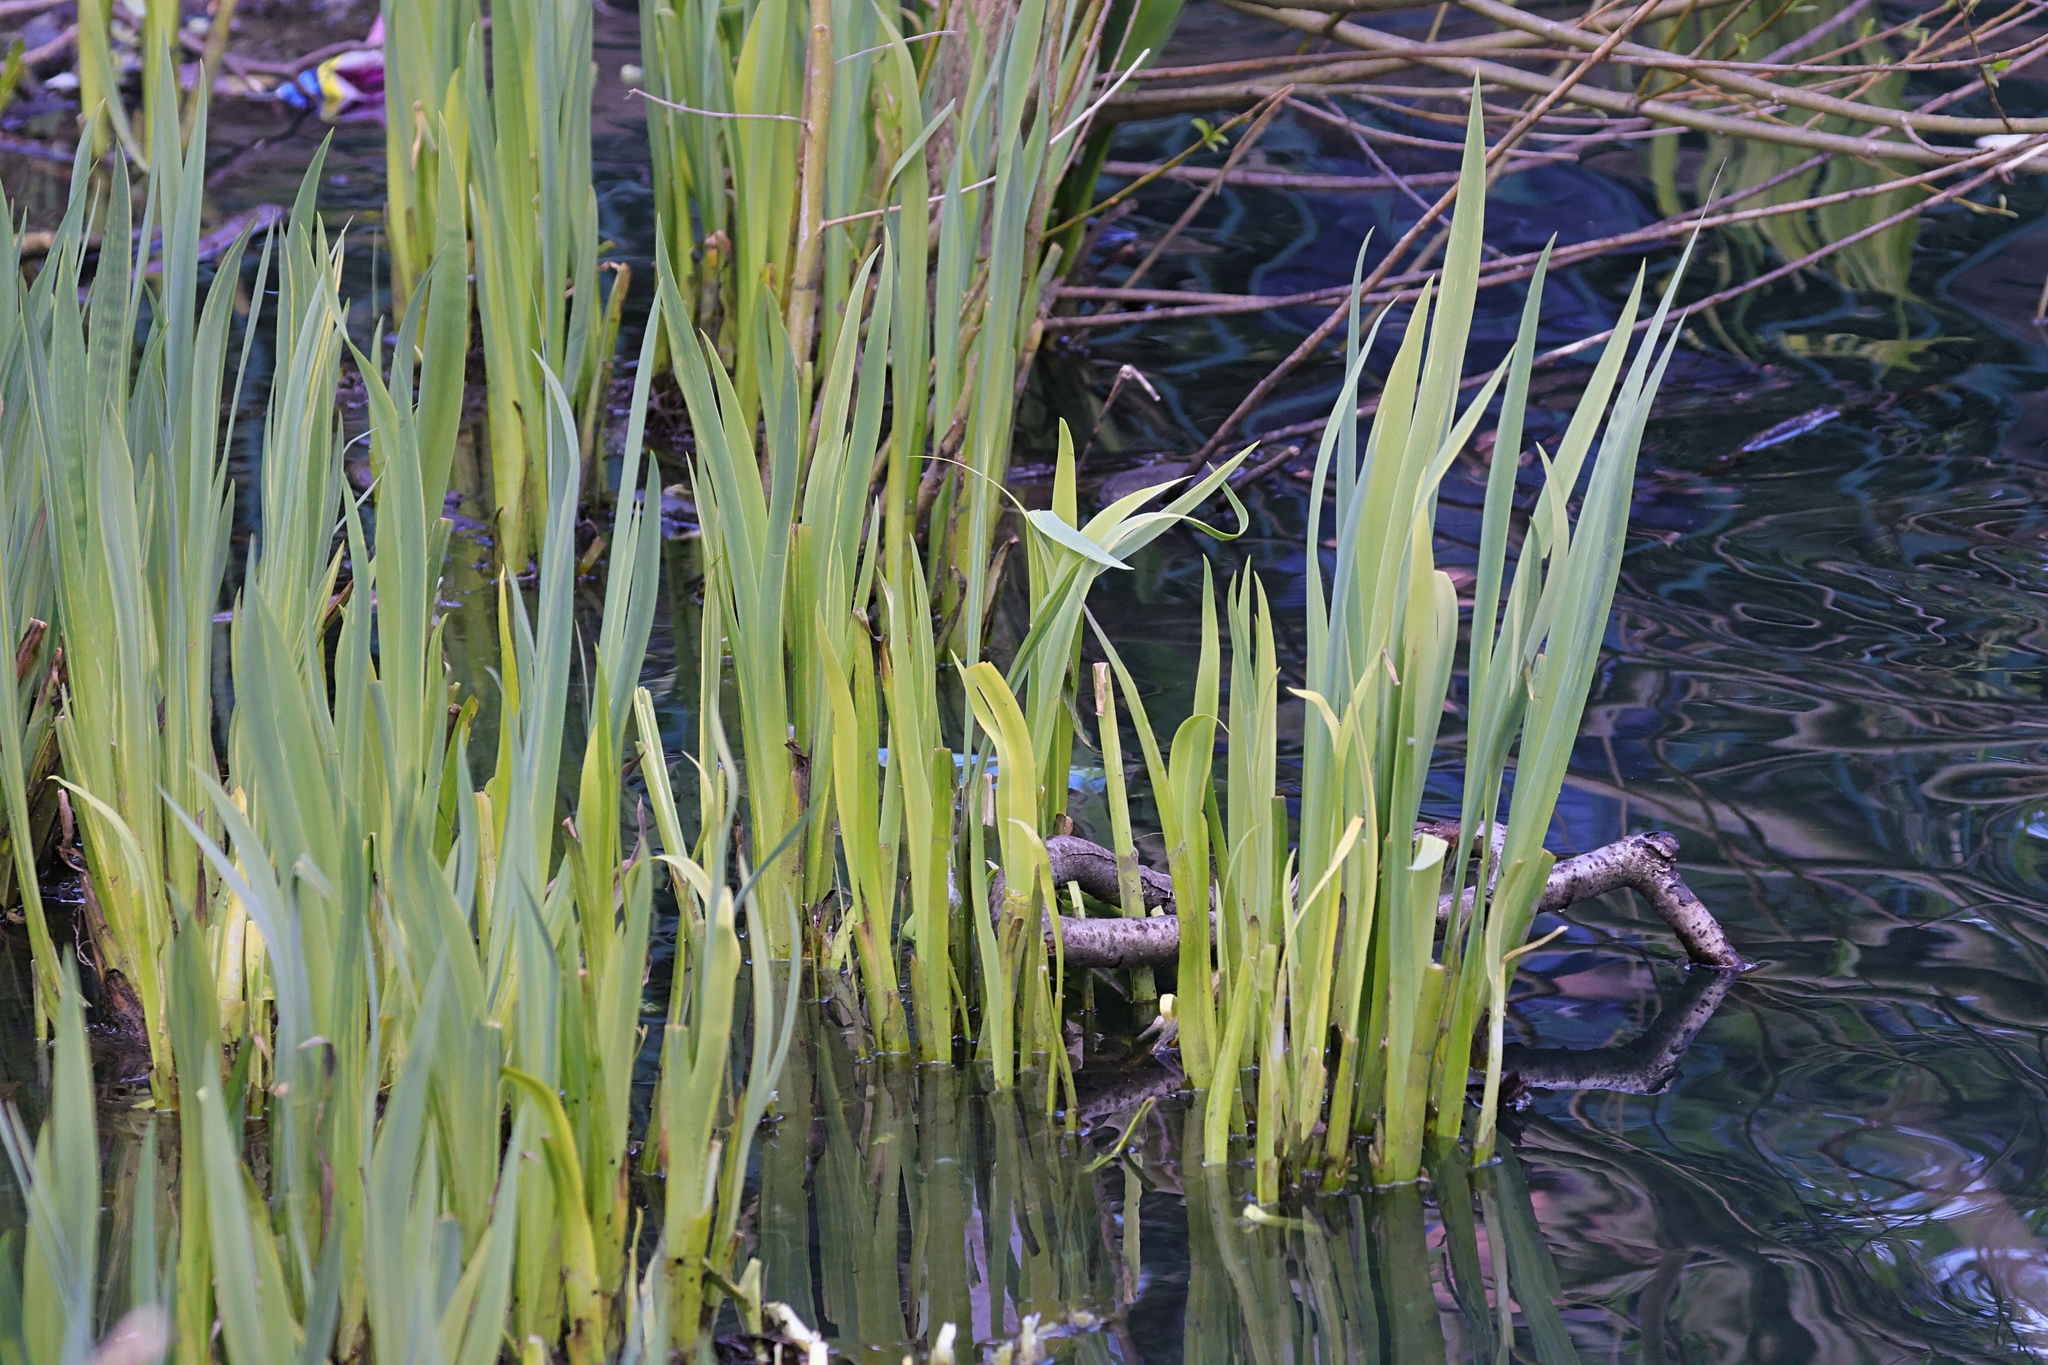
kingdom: Plantae
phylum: Tracheophyta
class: Liliopsida
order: Asparagales
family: Iridaceae
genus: Iris
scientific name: Iris pseudacorus
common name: Yellow flag
